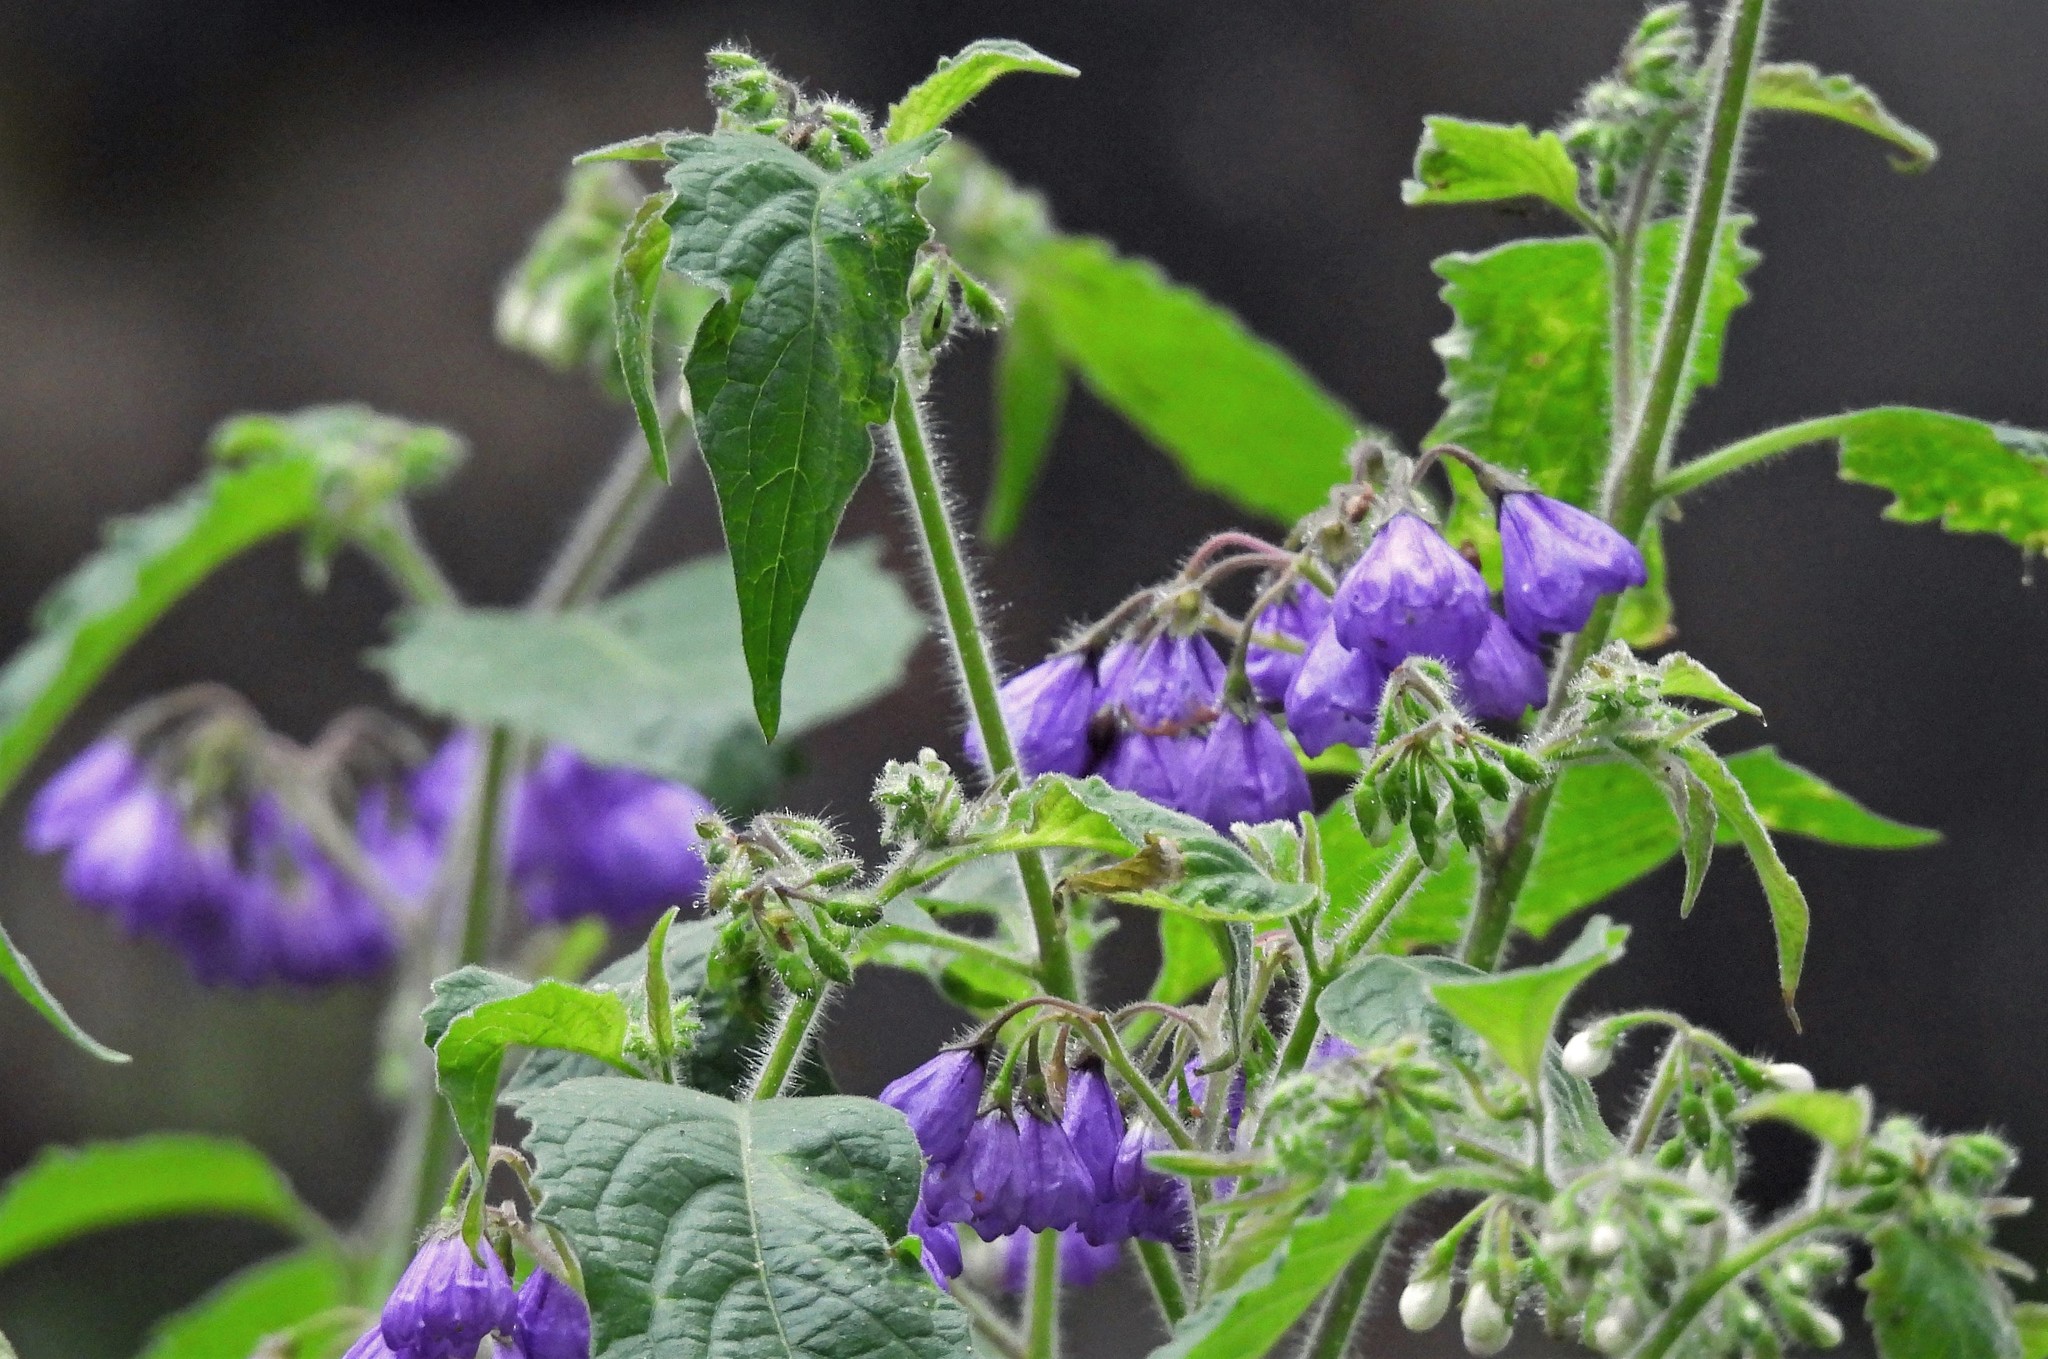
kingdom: Plantae
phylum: Tracheophyta
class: Magnoliopsida
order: Solanales
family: Solanaceae
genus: Solanum
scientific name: Solanum fiebrigii
